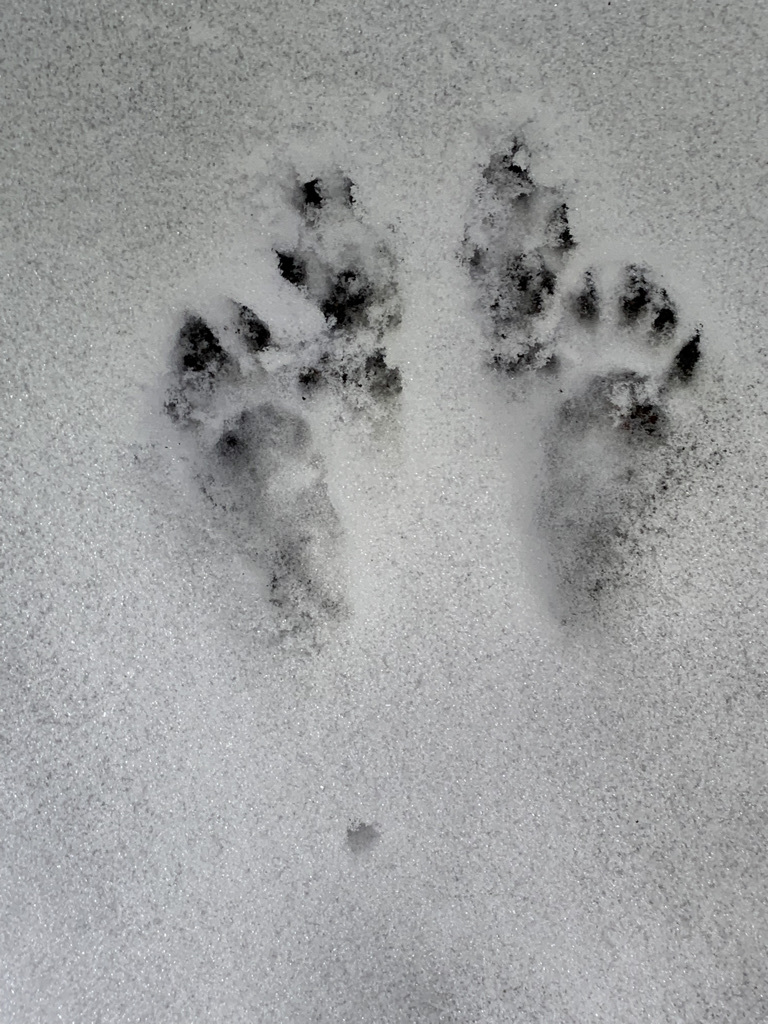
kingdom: Animalia
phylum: Chordata
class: Mammalia
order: Rodentia
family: Sciuridae
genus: Sciurus
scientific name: Sciurus carolinensis
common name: Eastern gray squirrel
